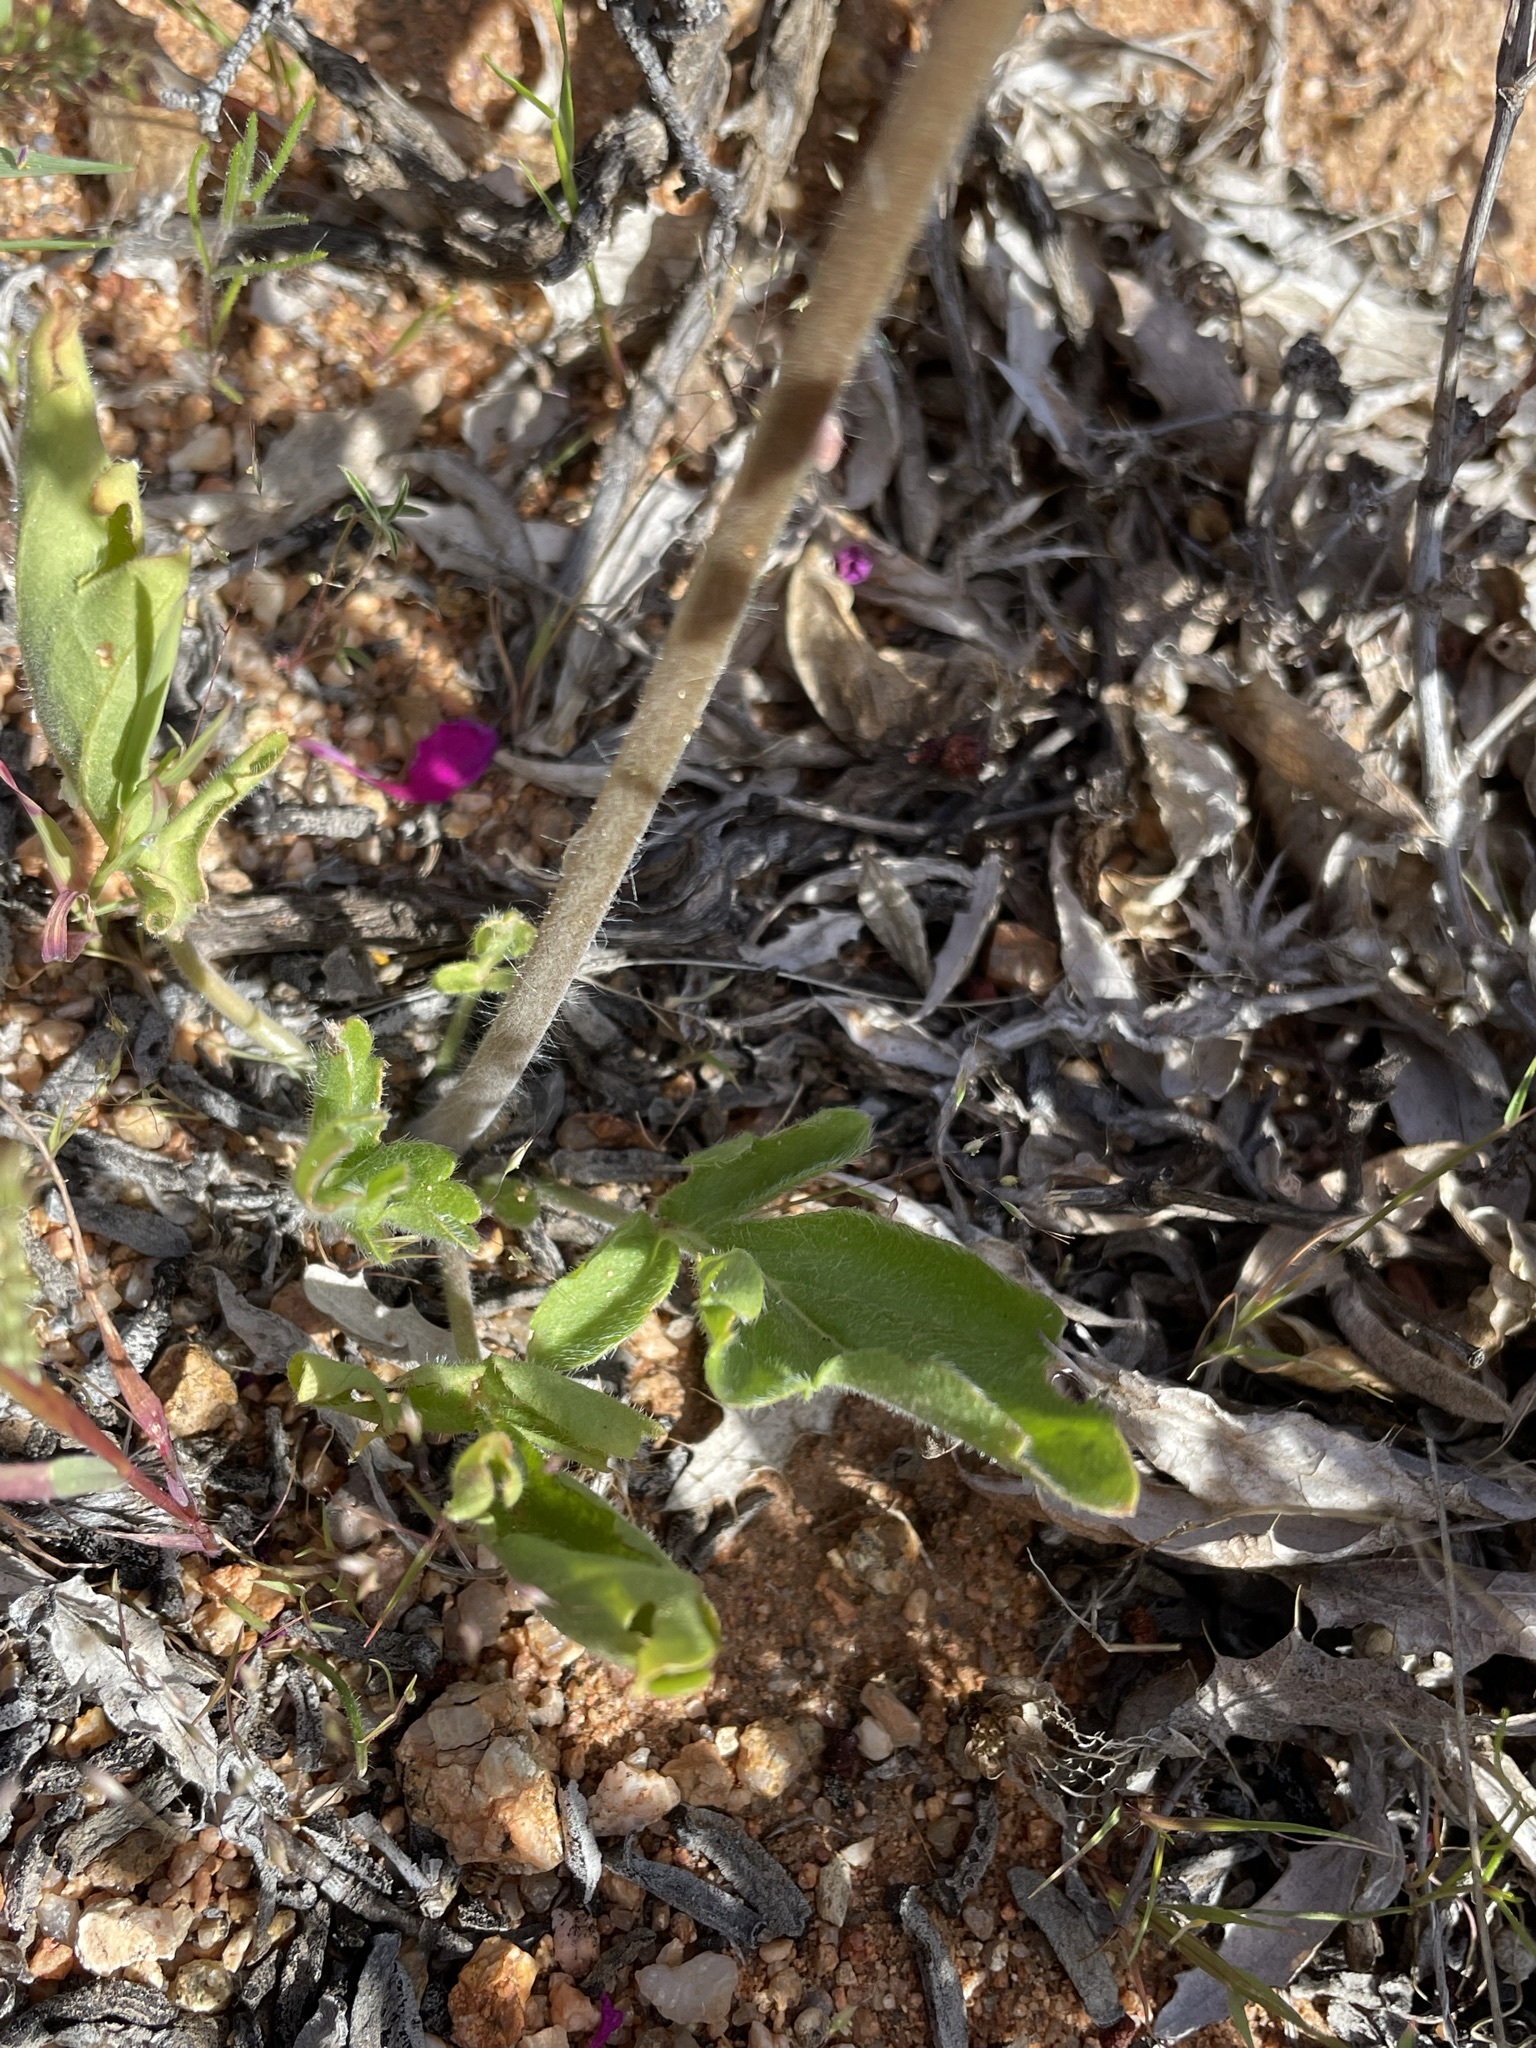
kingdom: Plantae
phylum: Tracheophyta
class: Magnoliopsida
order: Geraniales
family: Geraniaceae
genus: Pelargonium
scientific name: Pelargonium incrassatum
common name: Namaqualand beauty
